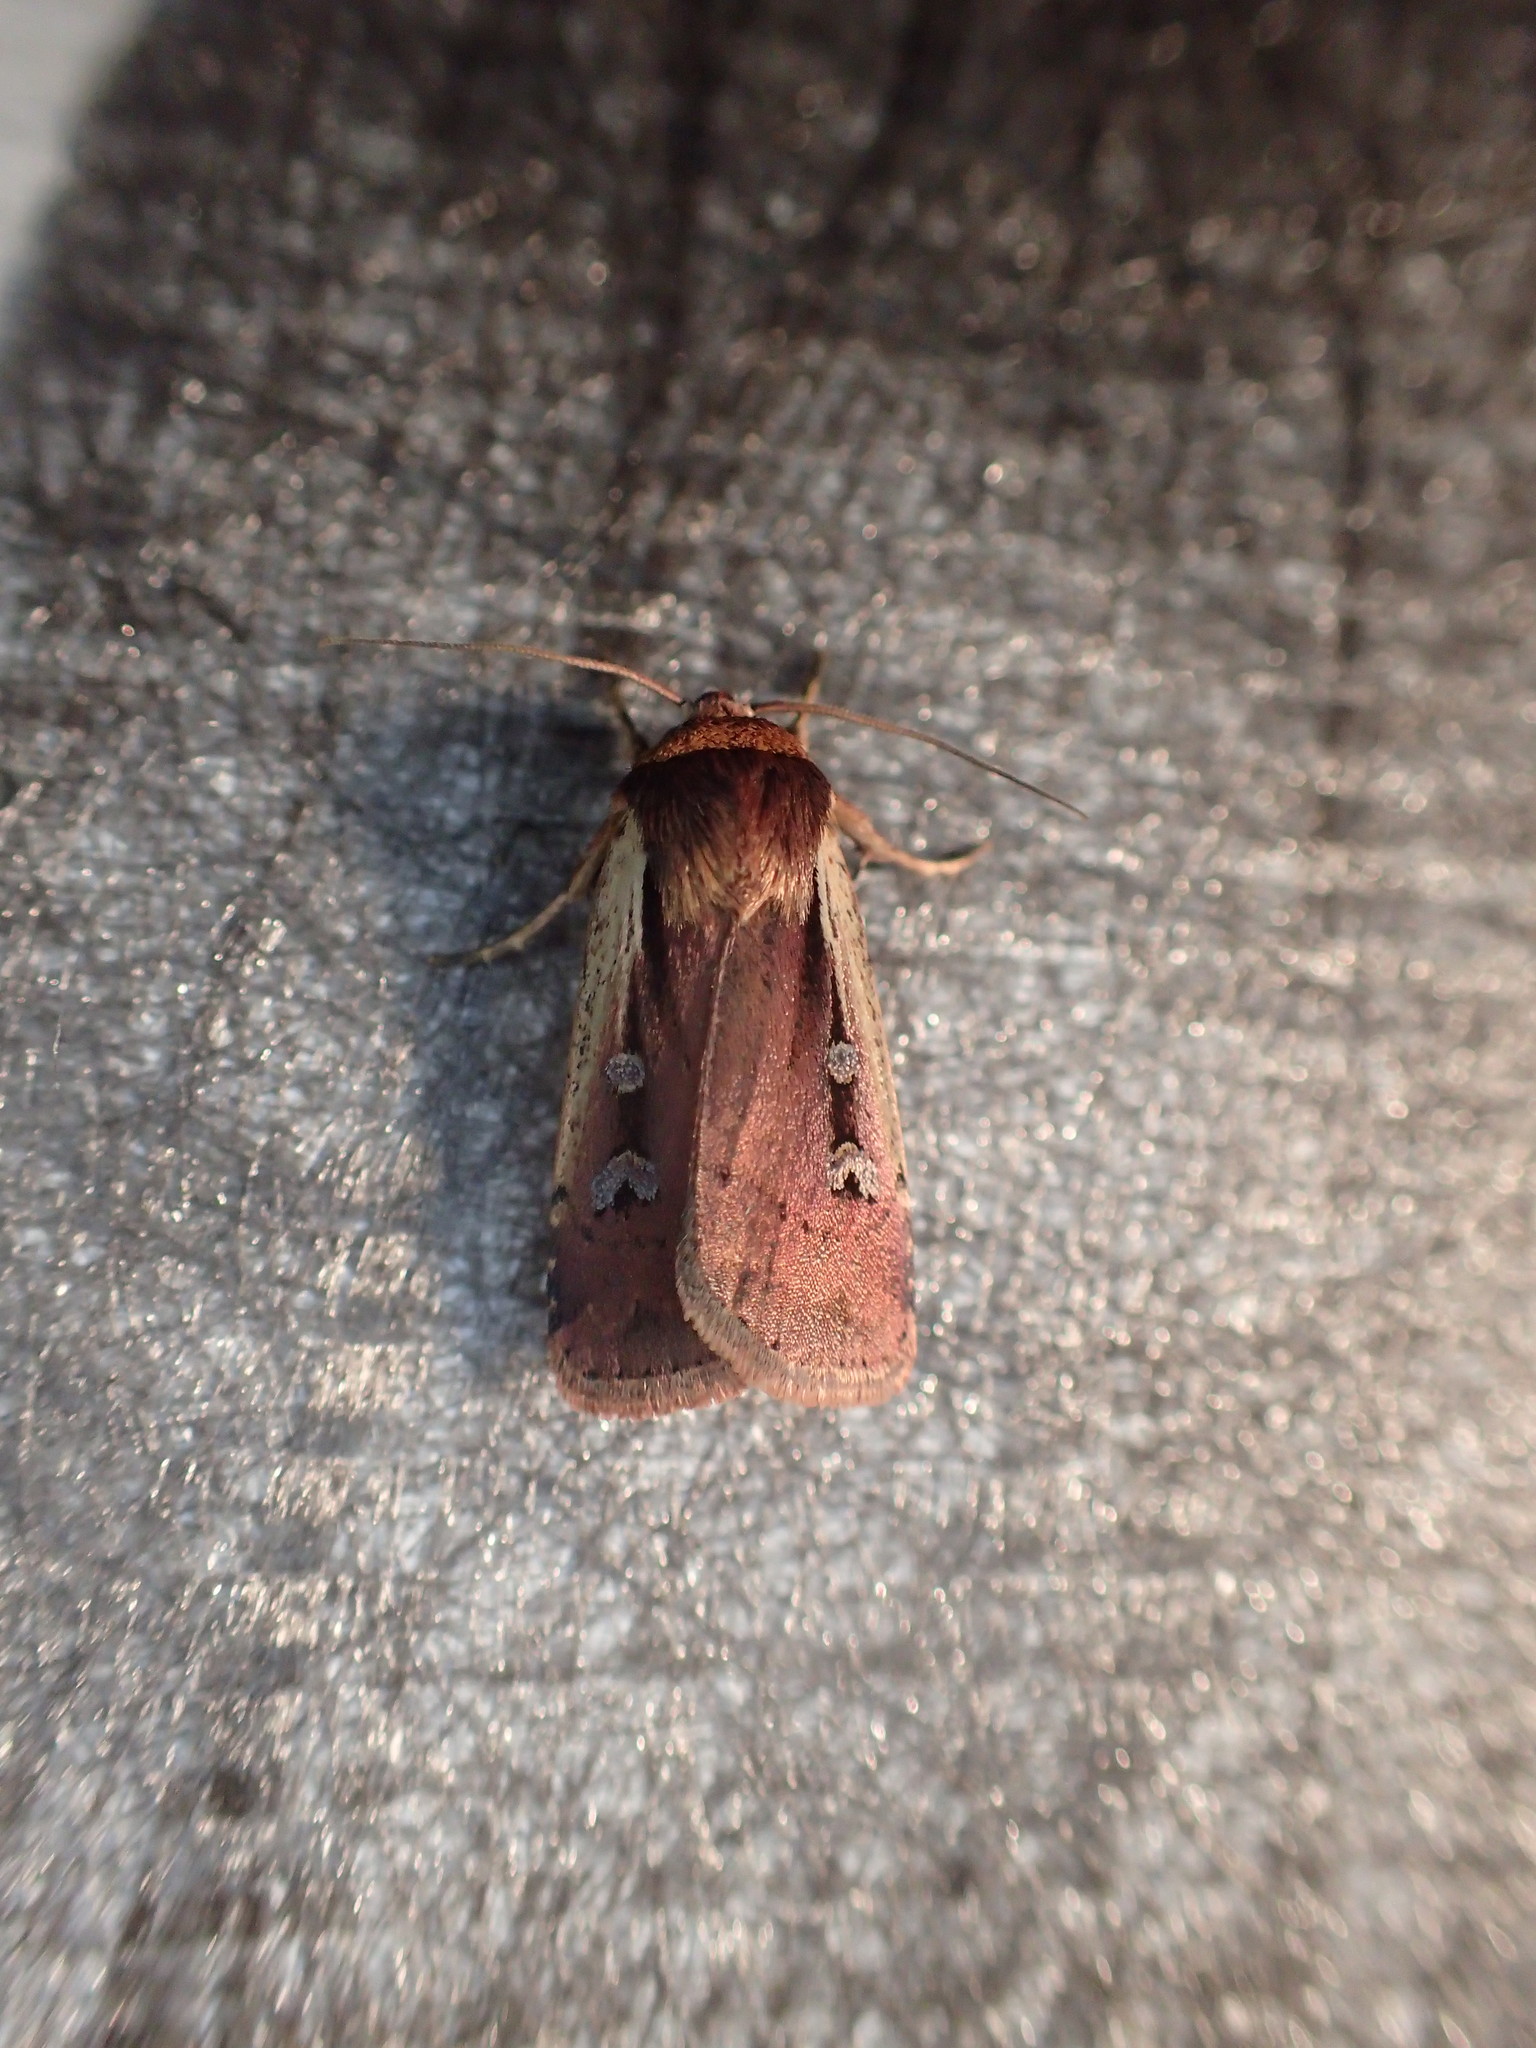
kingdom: Animalia
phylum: Arthropoda
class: Insecta
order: Lepidoptera
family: Noctuidae
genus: Ochropleura
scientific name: Ochropleura implecta
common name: Flame-shouldered dart
